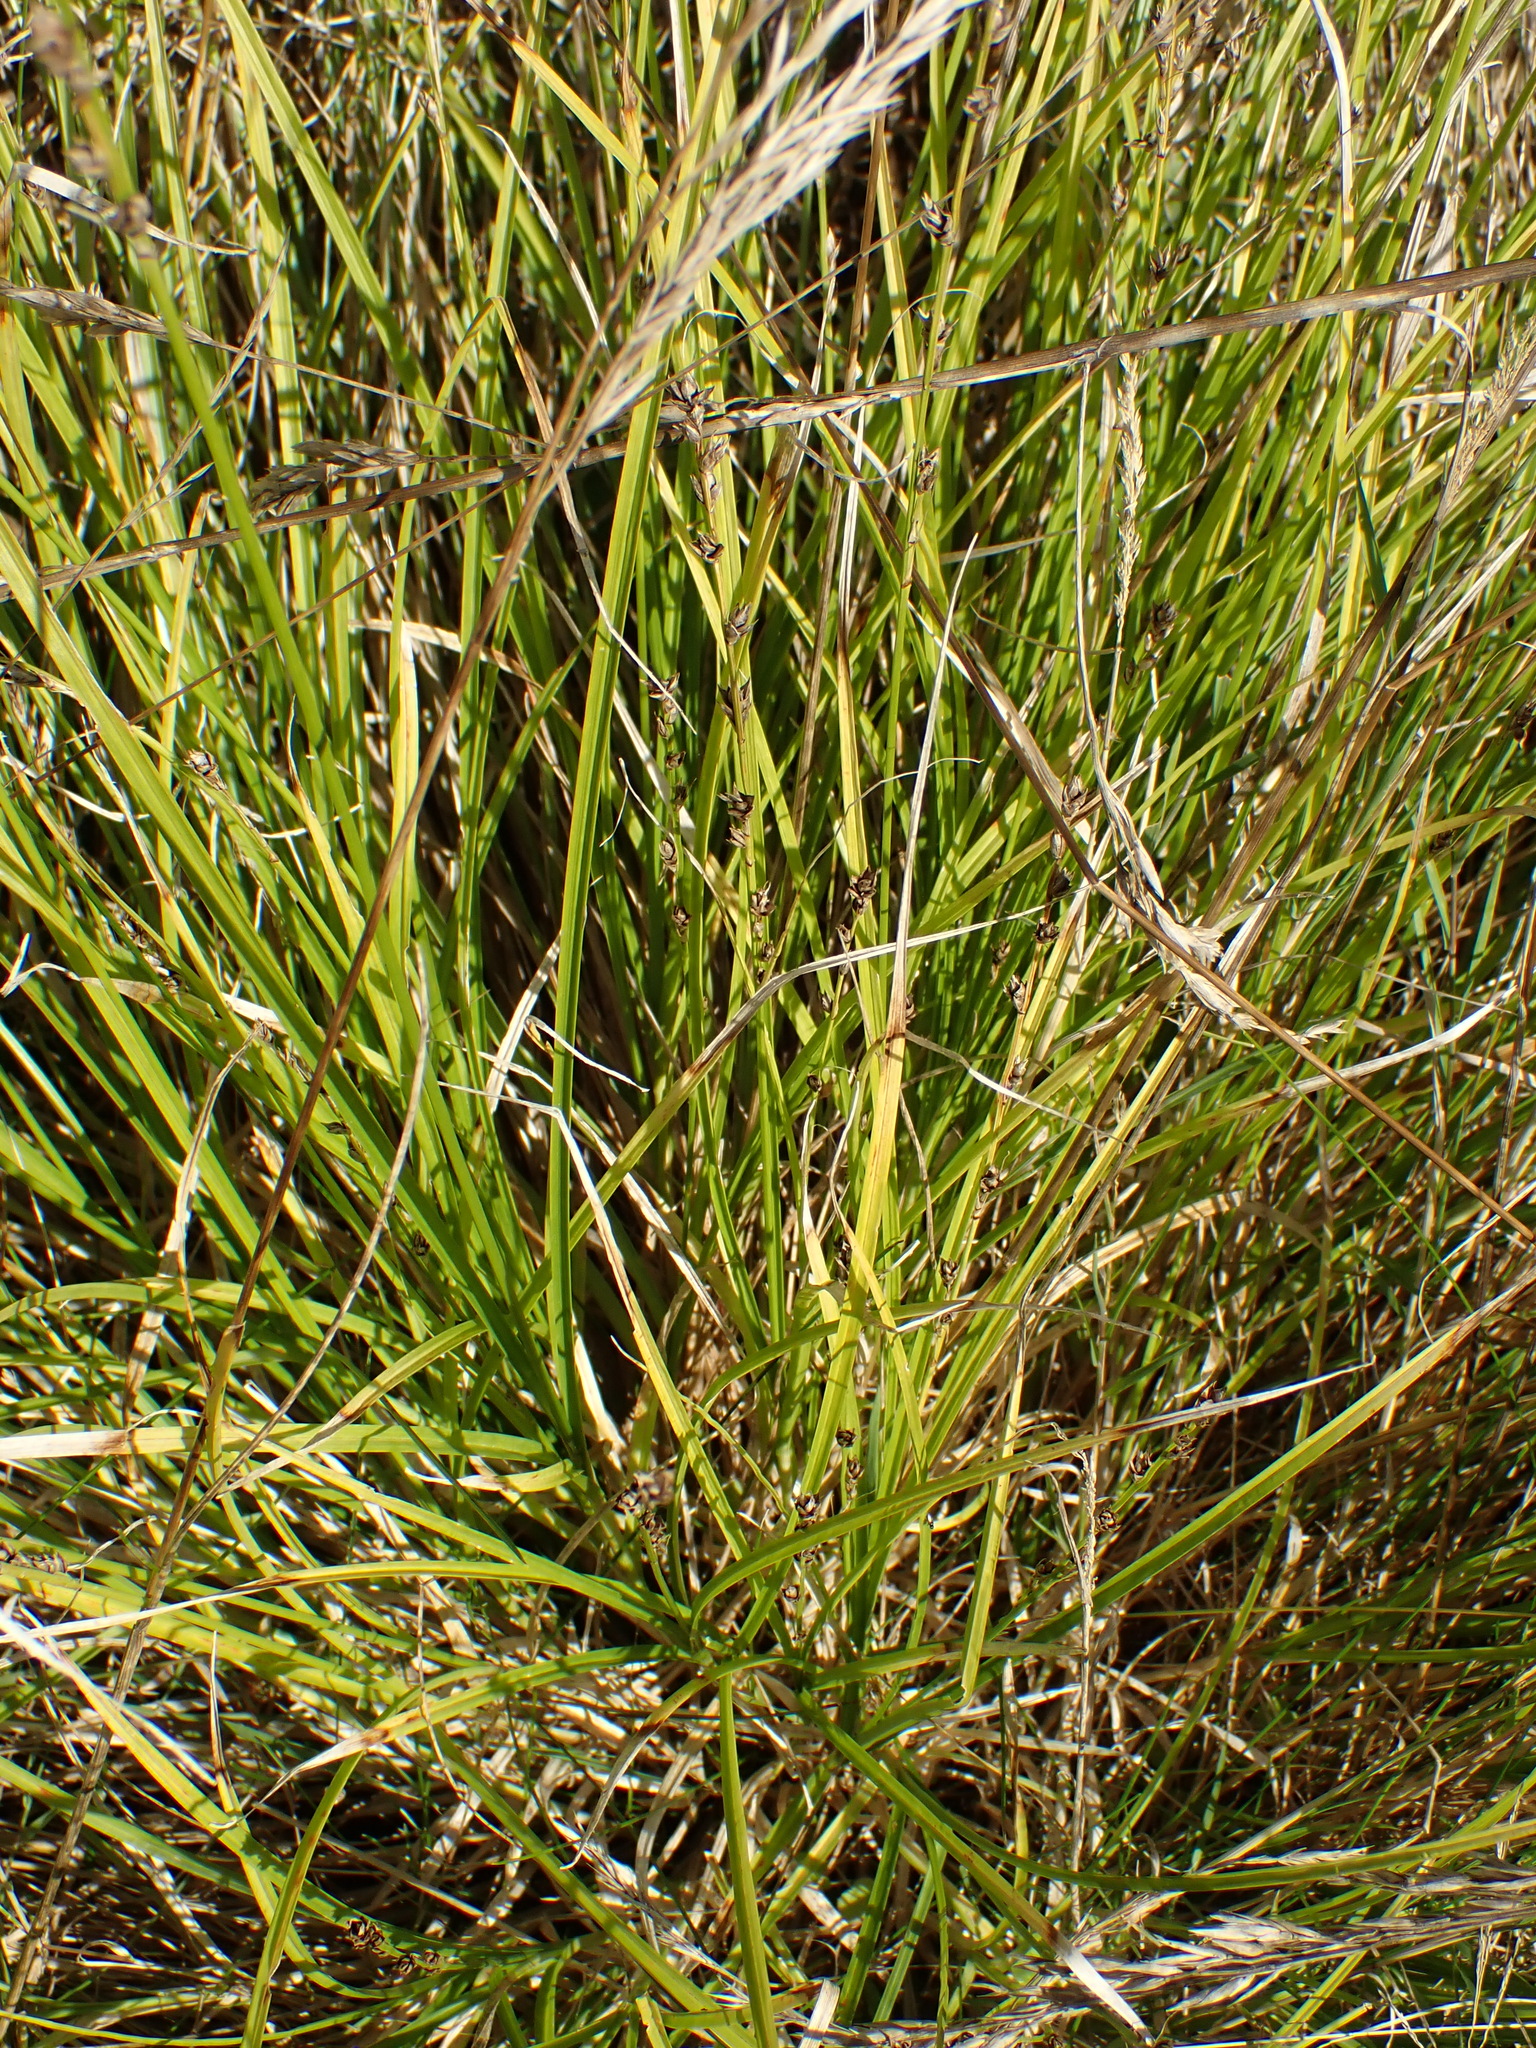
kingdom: Plantae
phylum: Tracheophyta
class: Liliopsida
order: Poales
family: Cyperaceae
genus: Carex
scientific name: Carex divulsa
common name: Grassland sedge
